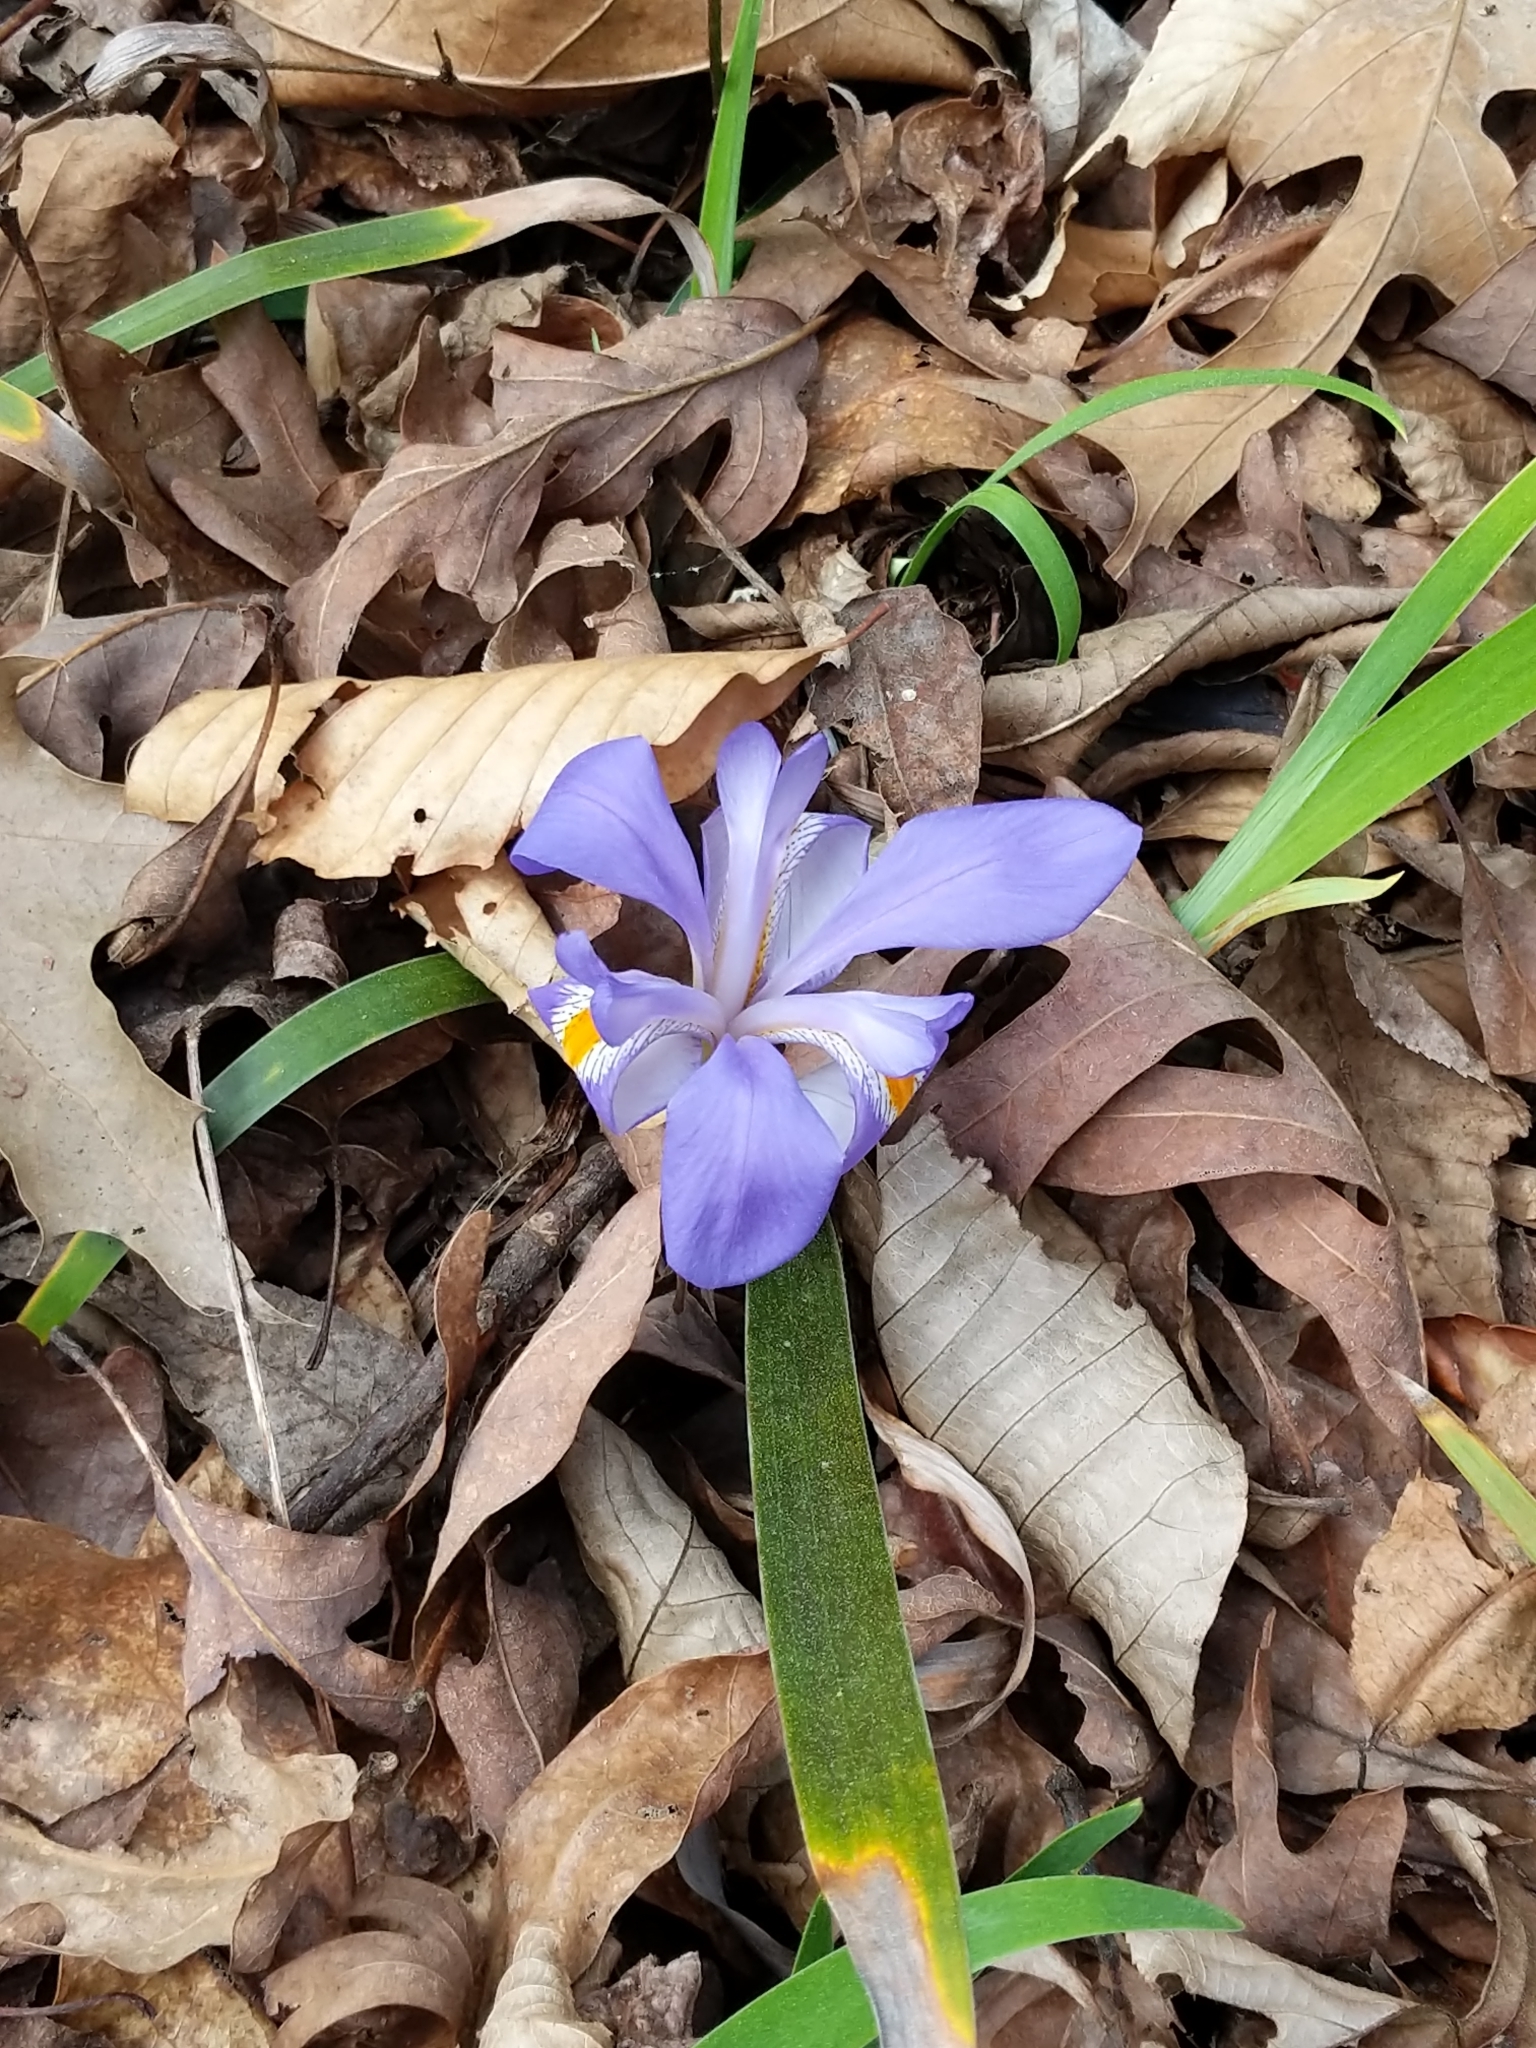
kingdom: Plantae
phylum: Tracheophyta
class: Liliopsida
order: Asparagales
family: Iridaceae
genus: Iris
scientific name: Iris verna
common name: Dwarf iris
